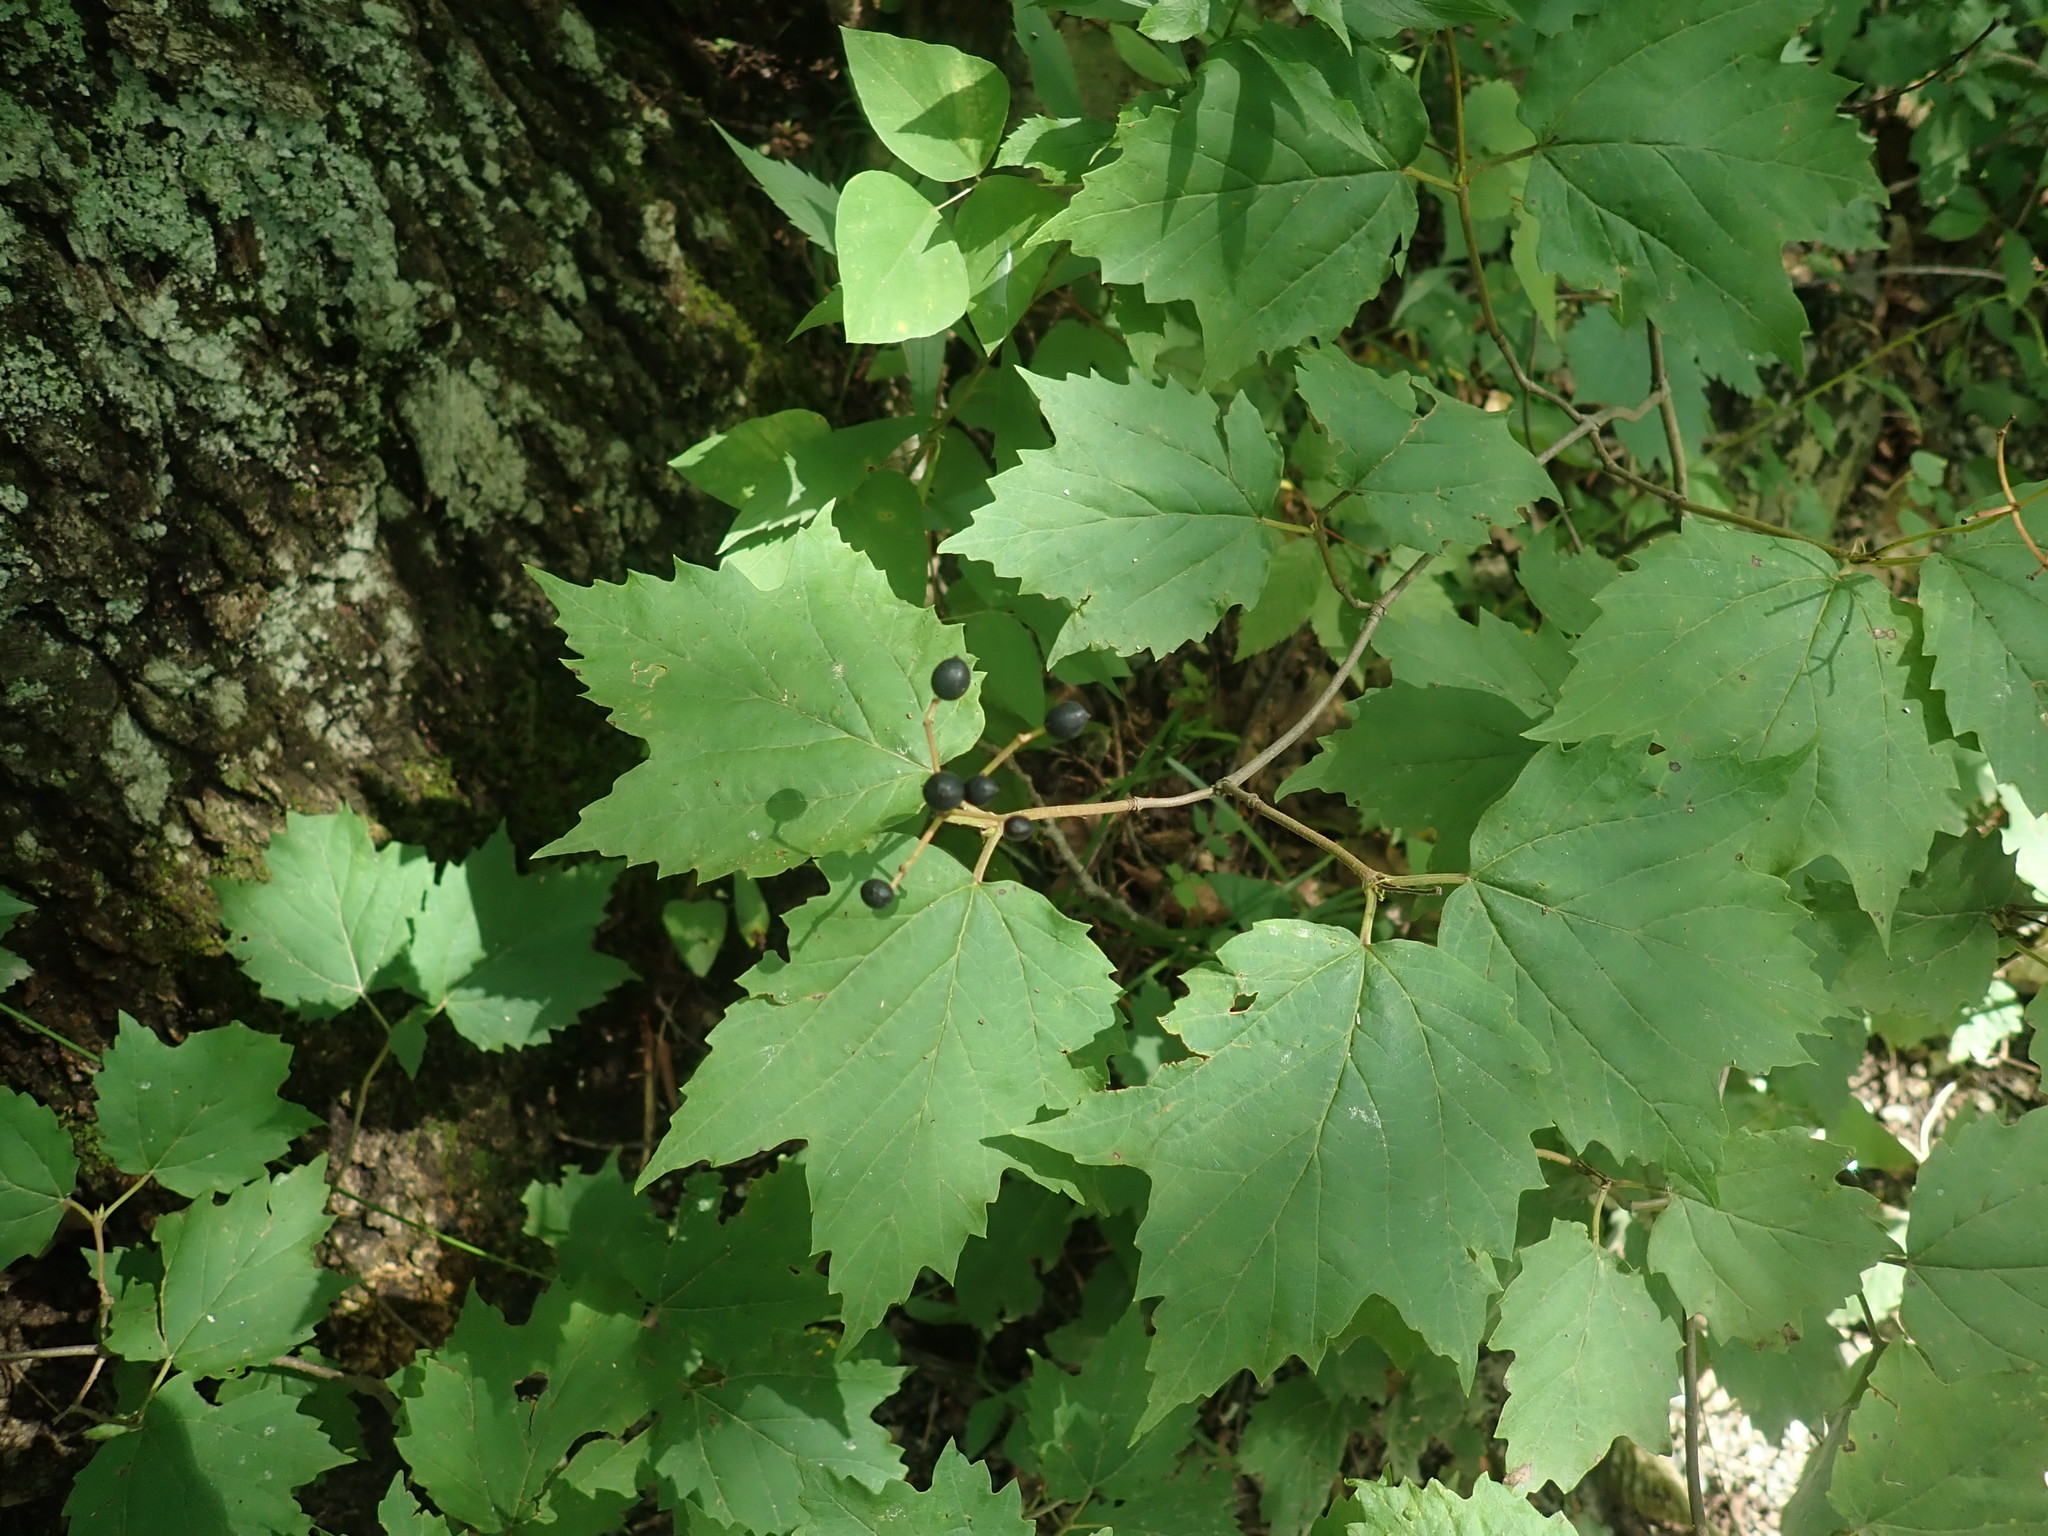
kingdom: Plantae
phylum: Tracheophyta
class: Magnoliopsida
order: Dipsacales
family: Viburnaceae
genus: Viburnum
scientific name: Viburnum acerifolium
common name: Dockmackie
